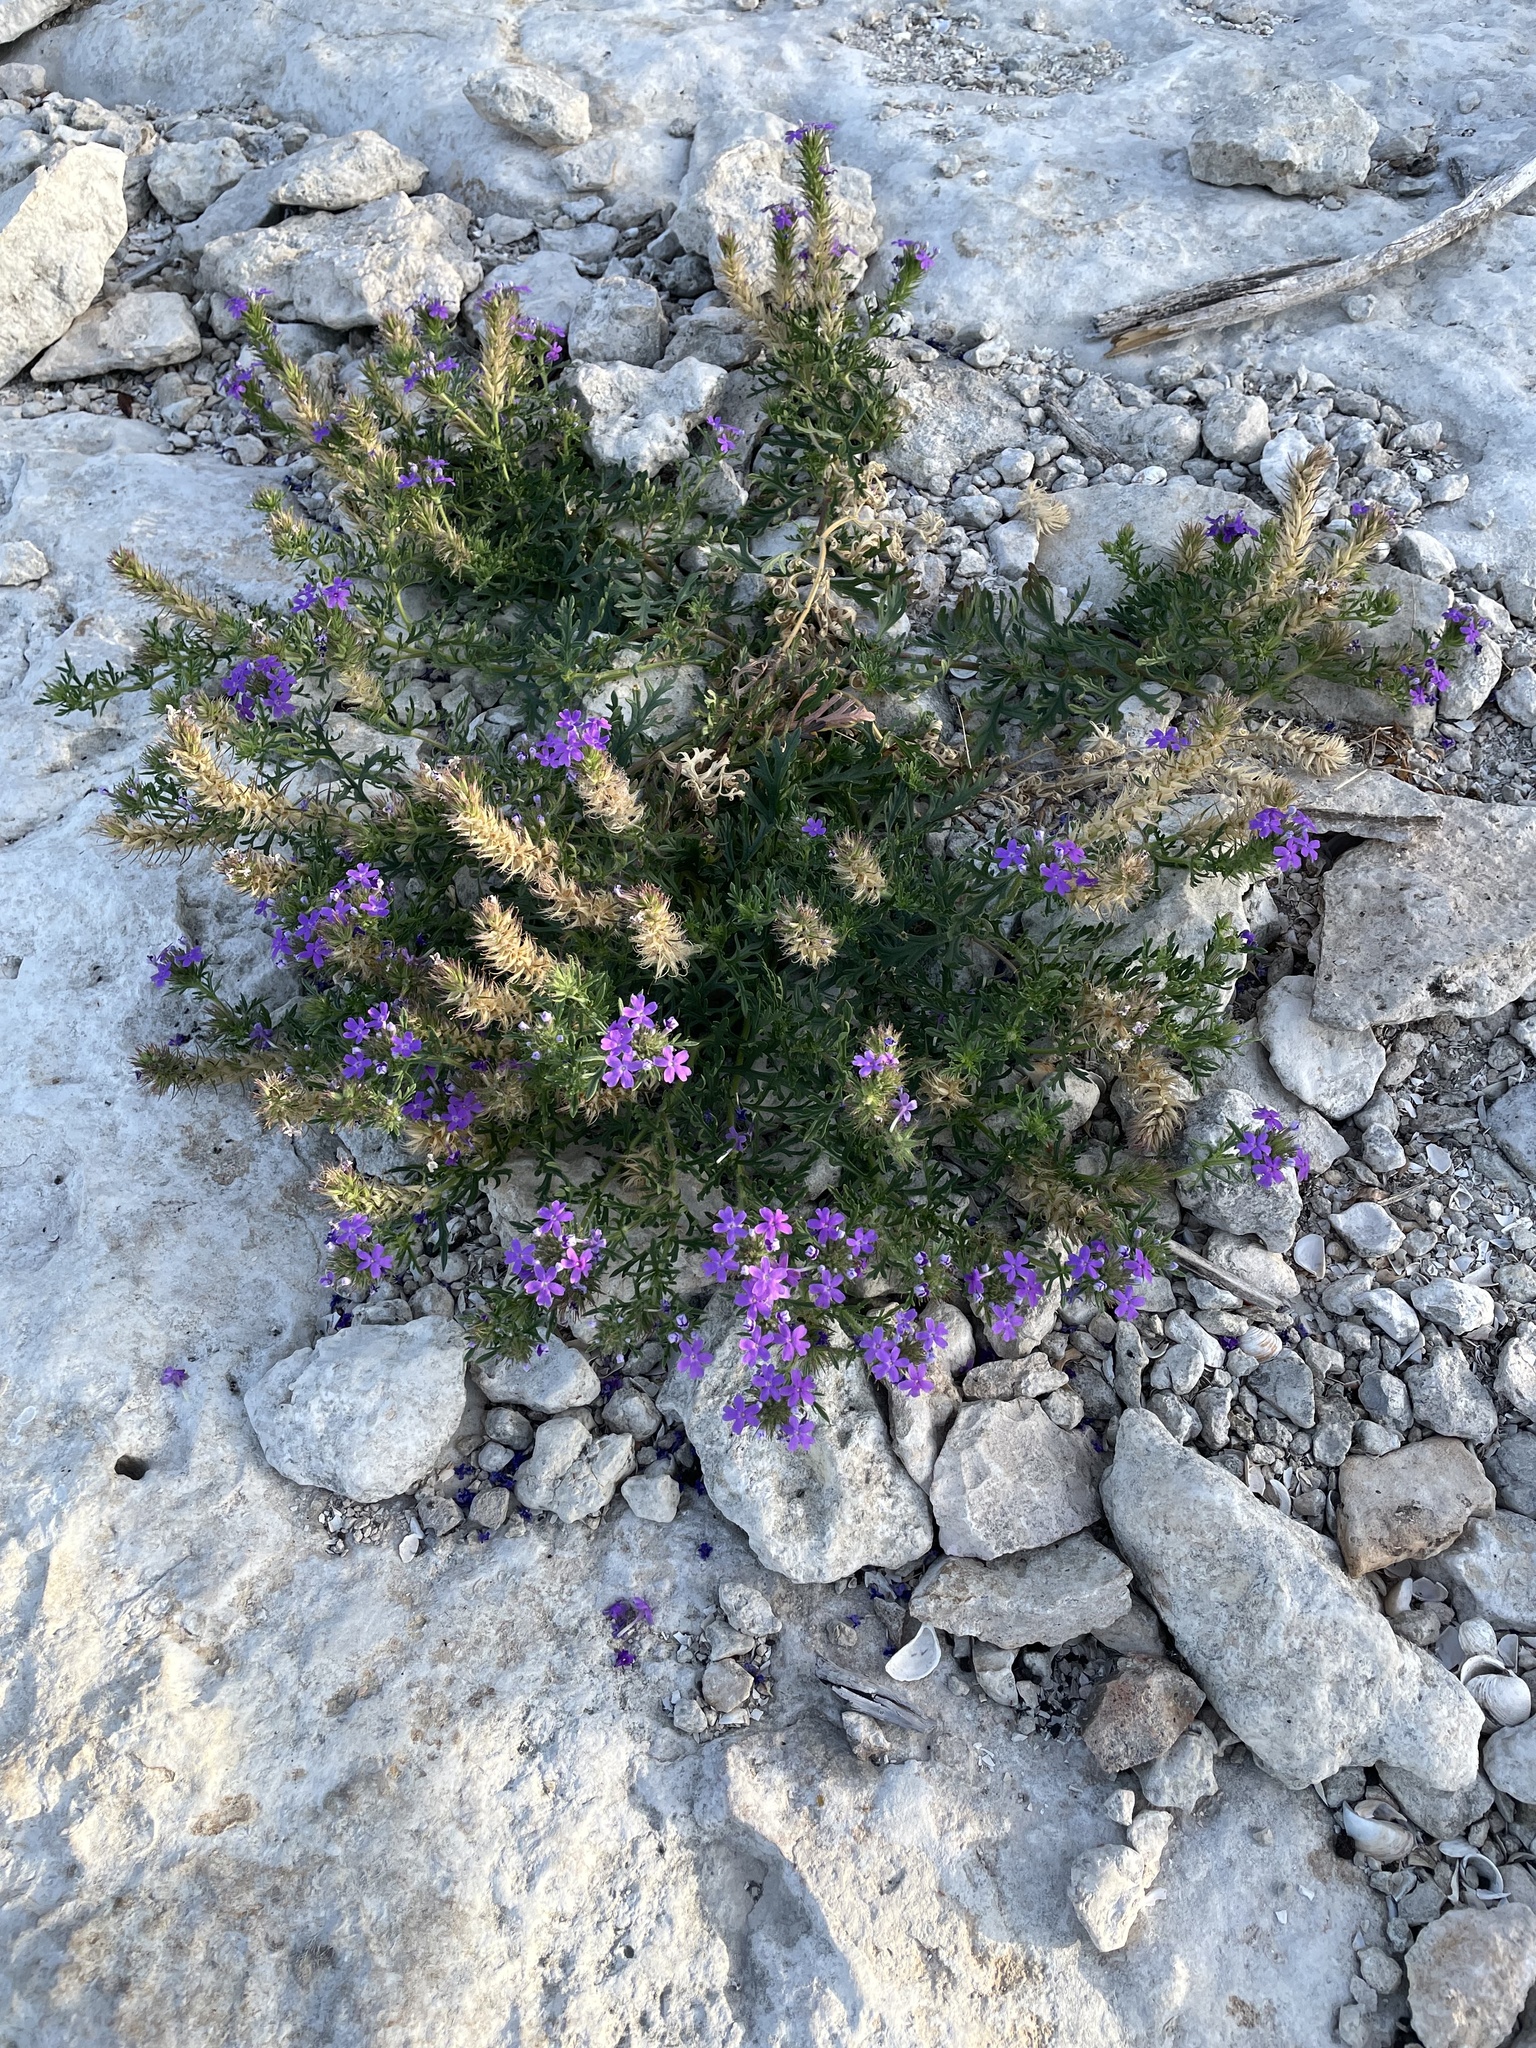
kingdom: Plantae
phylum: Tracheophyta
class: Magnoliopsida
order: Lamiales
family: Verbenaceae
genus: Verbena
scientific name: Verbena bipinnatifida
